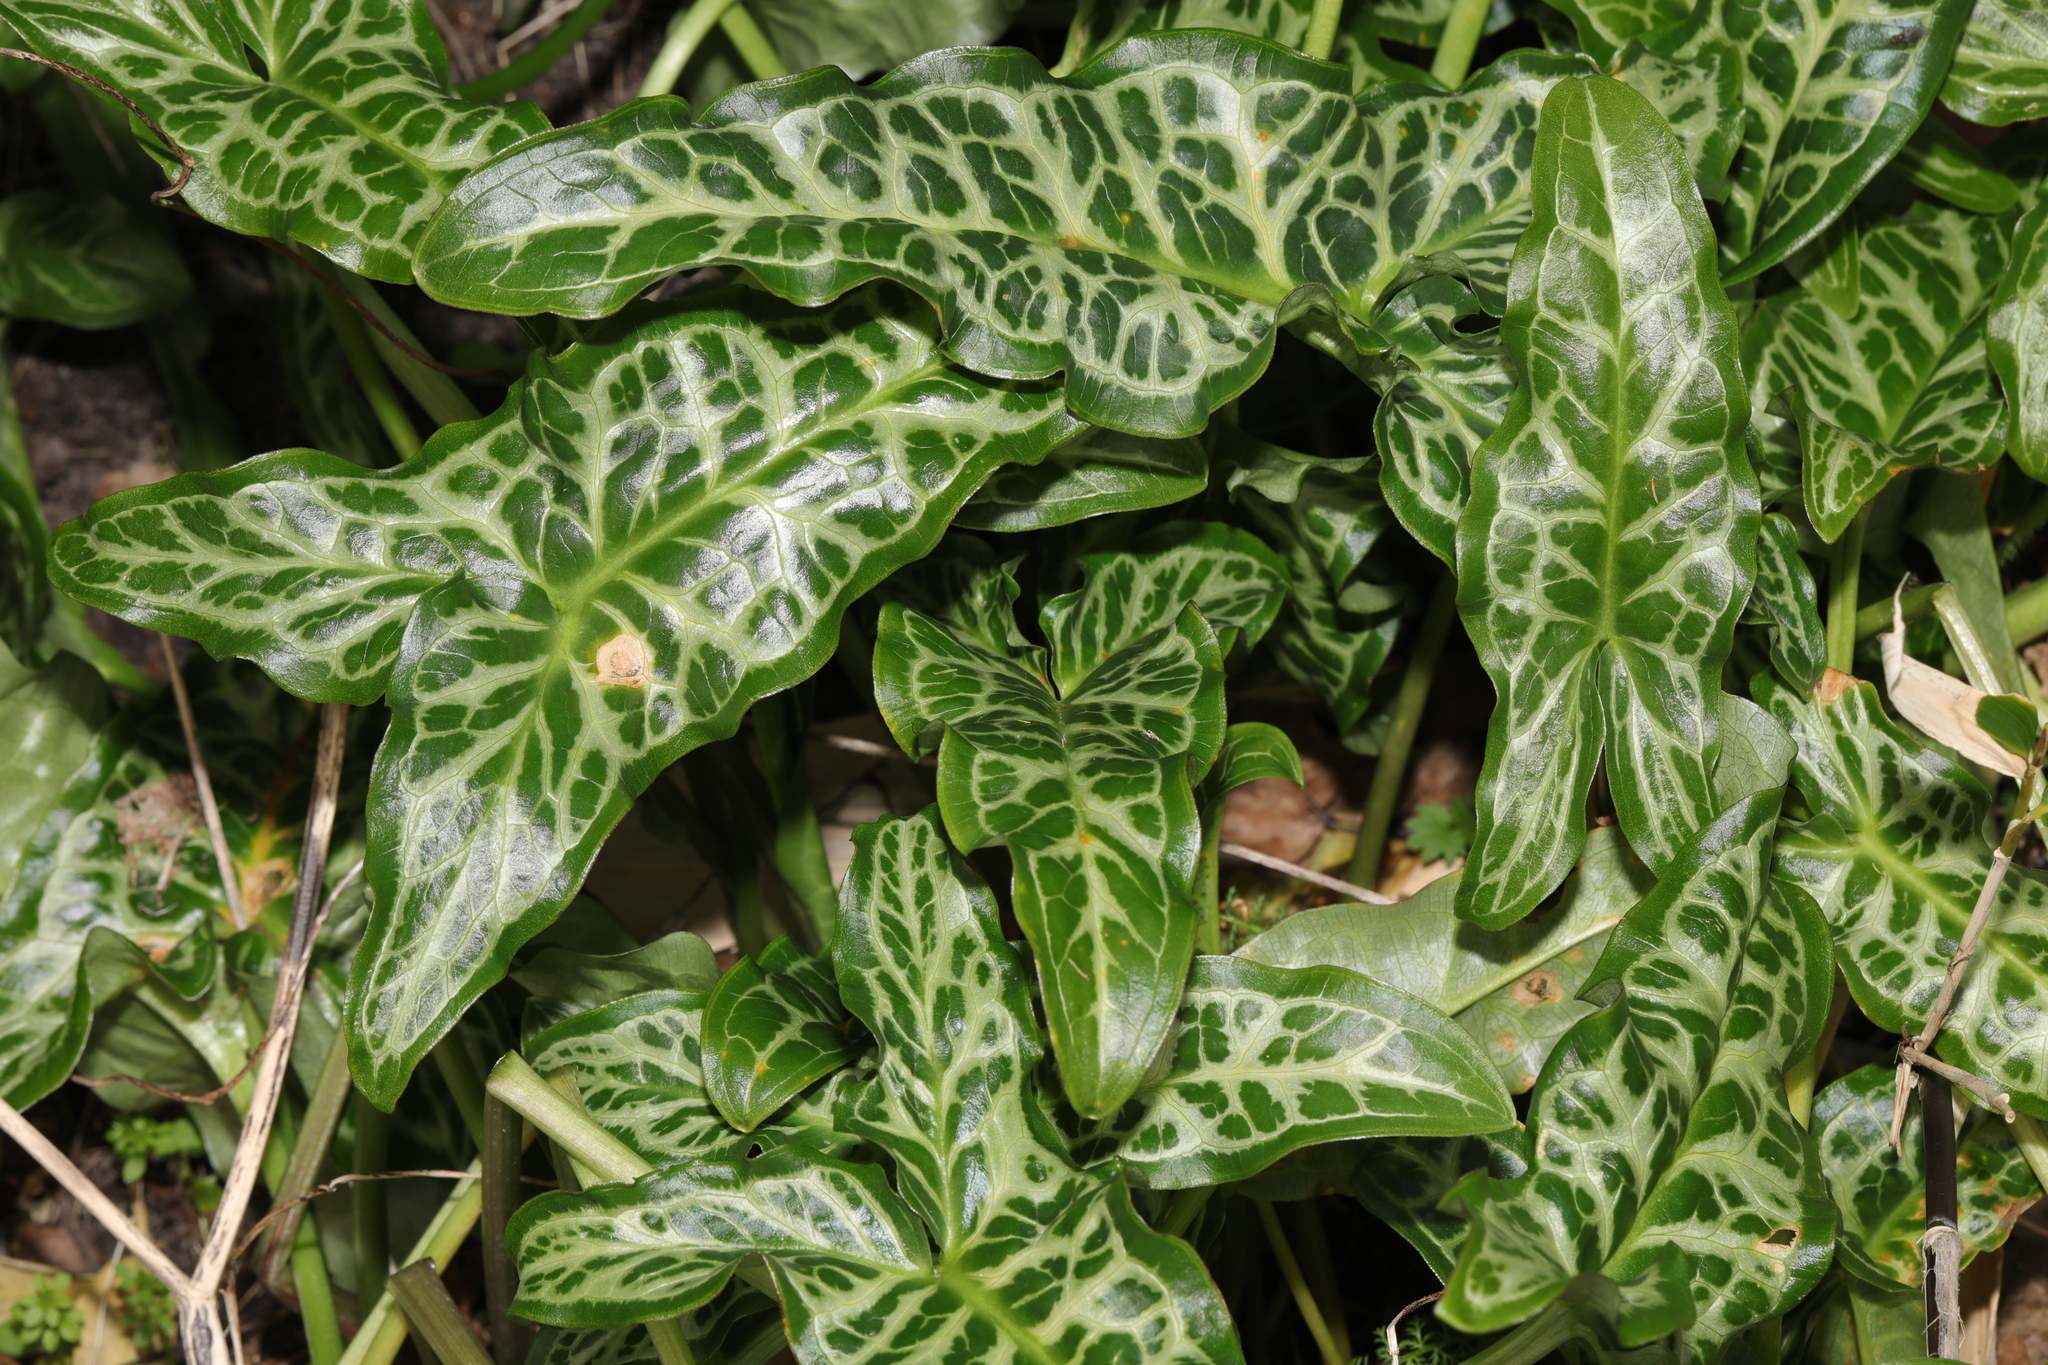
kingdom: Plantae
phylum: Tracheophyta
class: Liliopsida
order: Alismatales
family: Araceae
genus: Arum
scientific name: Arum italicum
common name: Italian lords-and-ladies
